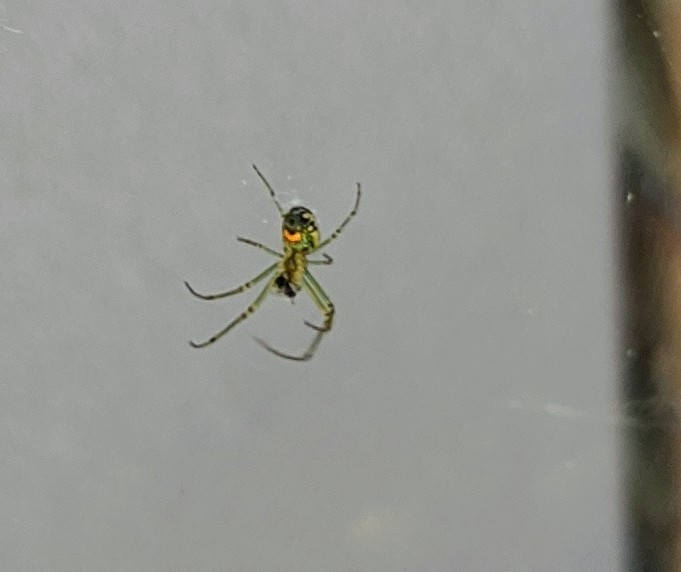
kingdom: Animalia
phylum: Arthropoda
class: Arachnida
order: Araneae
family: Tetragnathidae
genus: Leucauge
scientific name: Leucauge venusta
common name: Longjawed orb weavers
